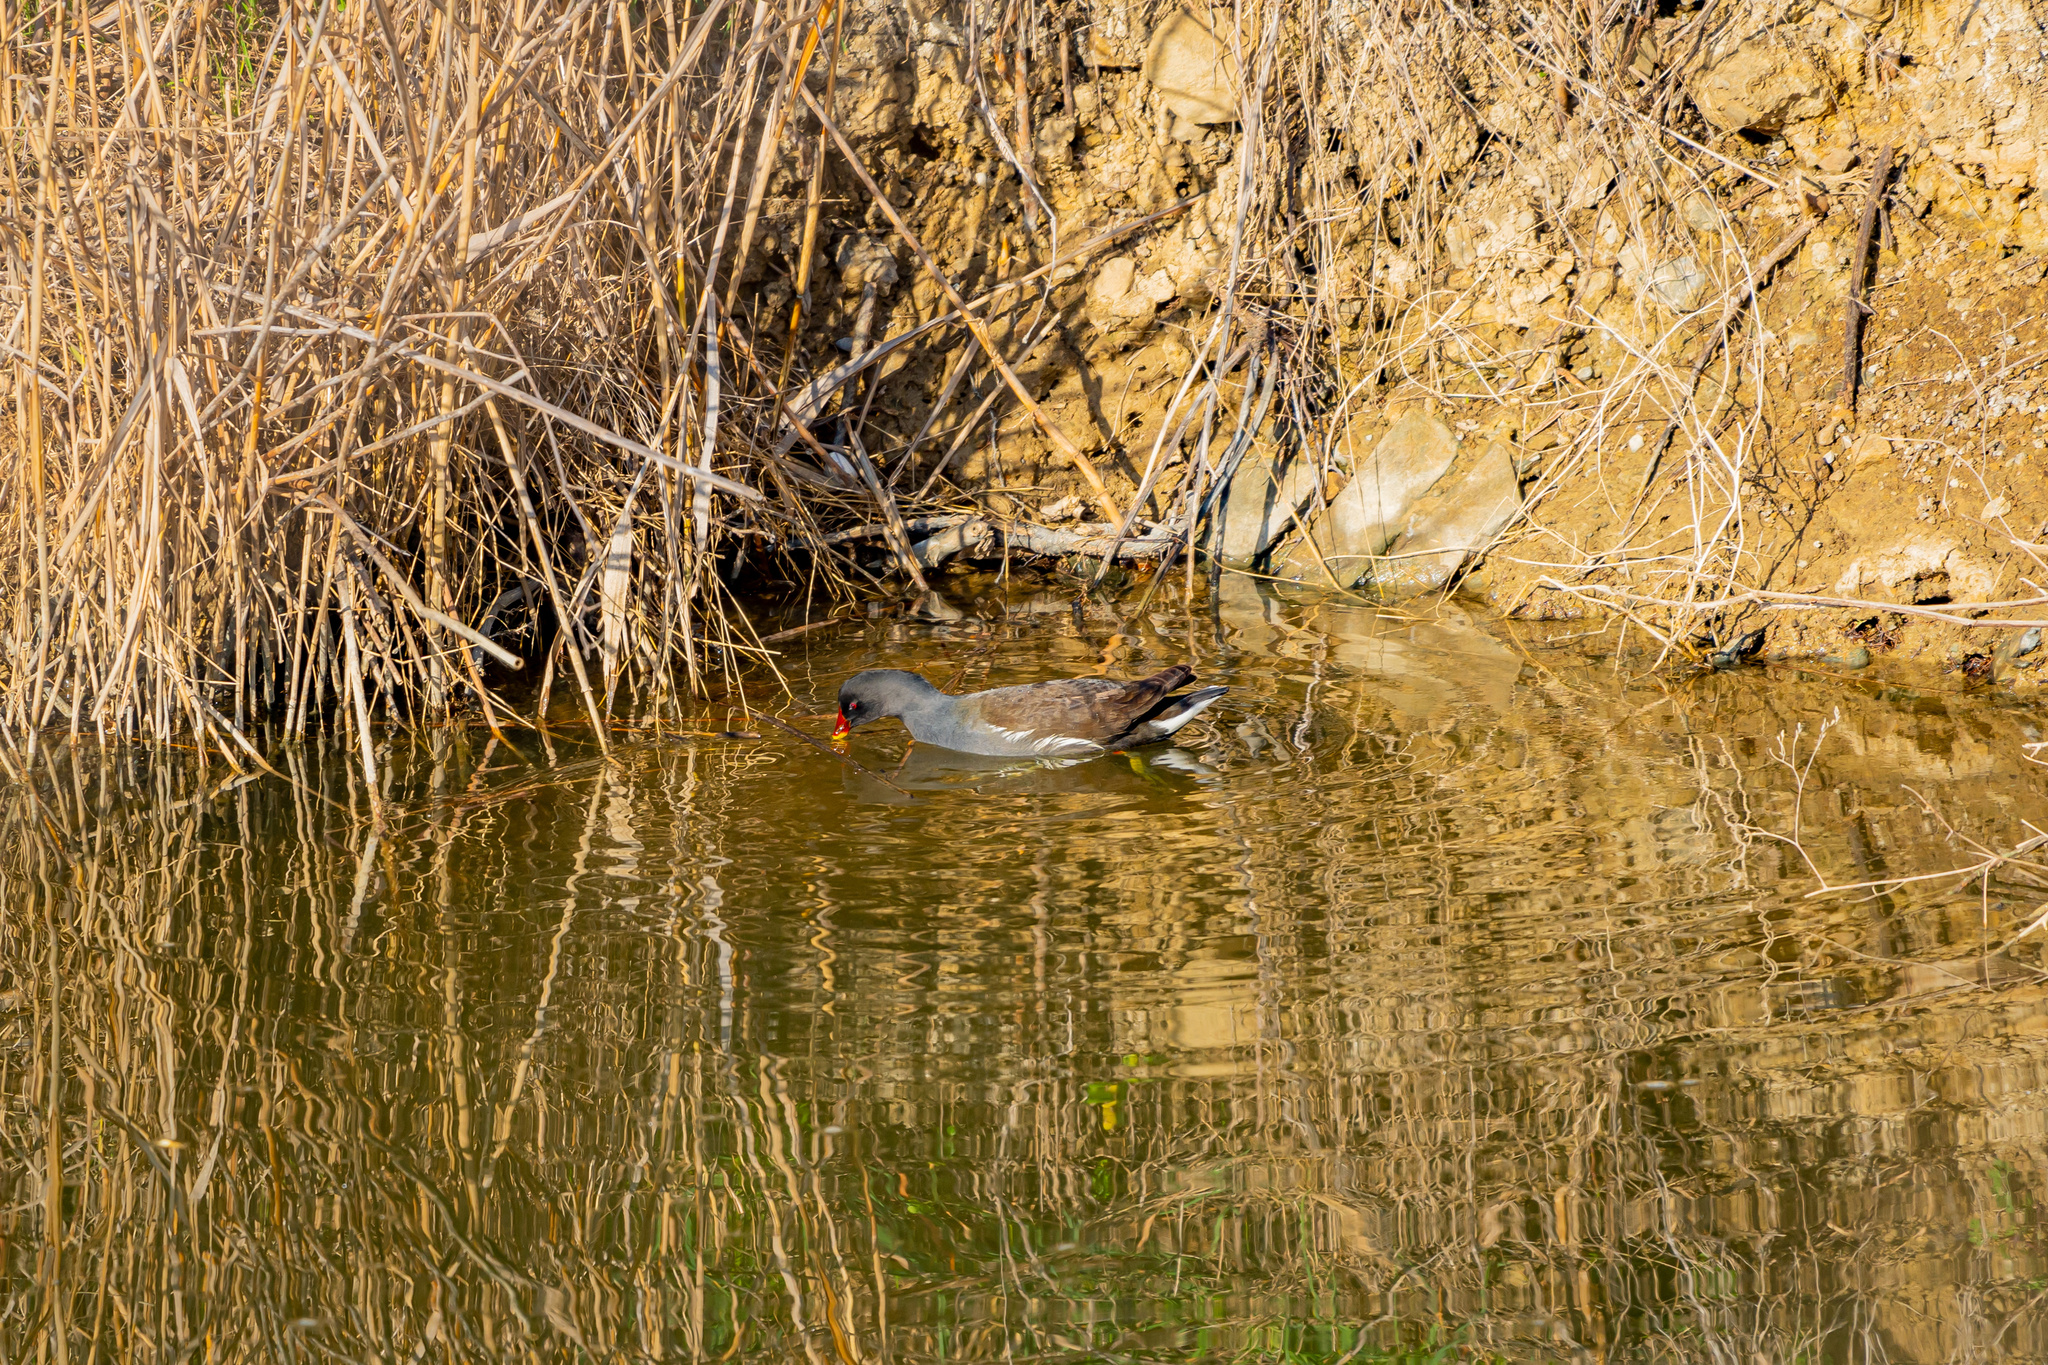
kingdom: Animalia
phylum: Chordata
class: Aves
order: Gruiformes
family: Rallidae
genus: Gallinula
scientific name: Gallinula chloropus
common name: Common moorhen
